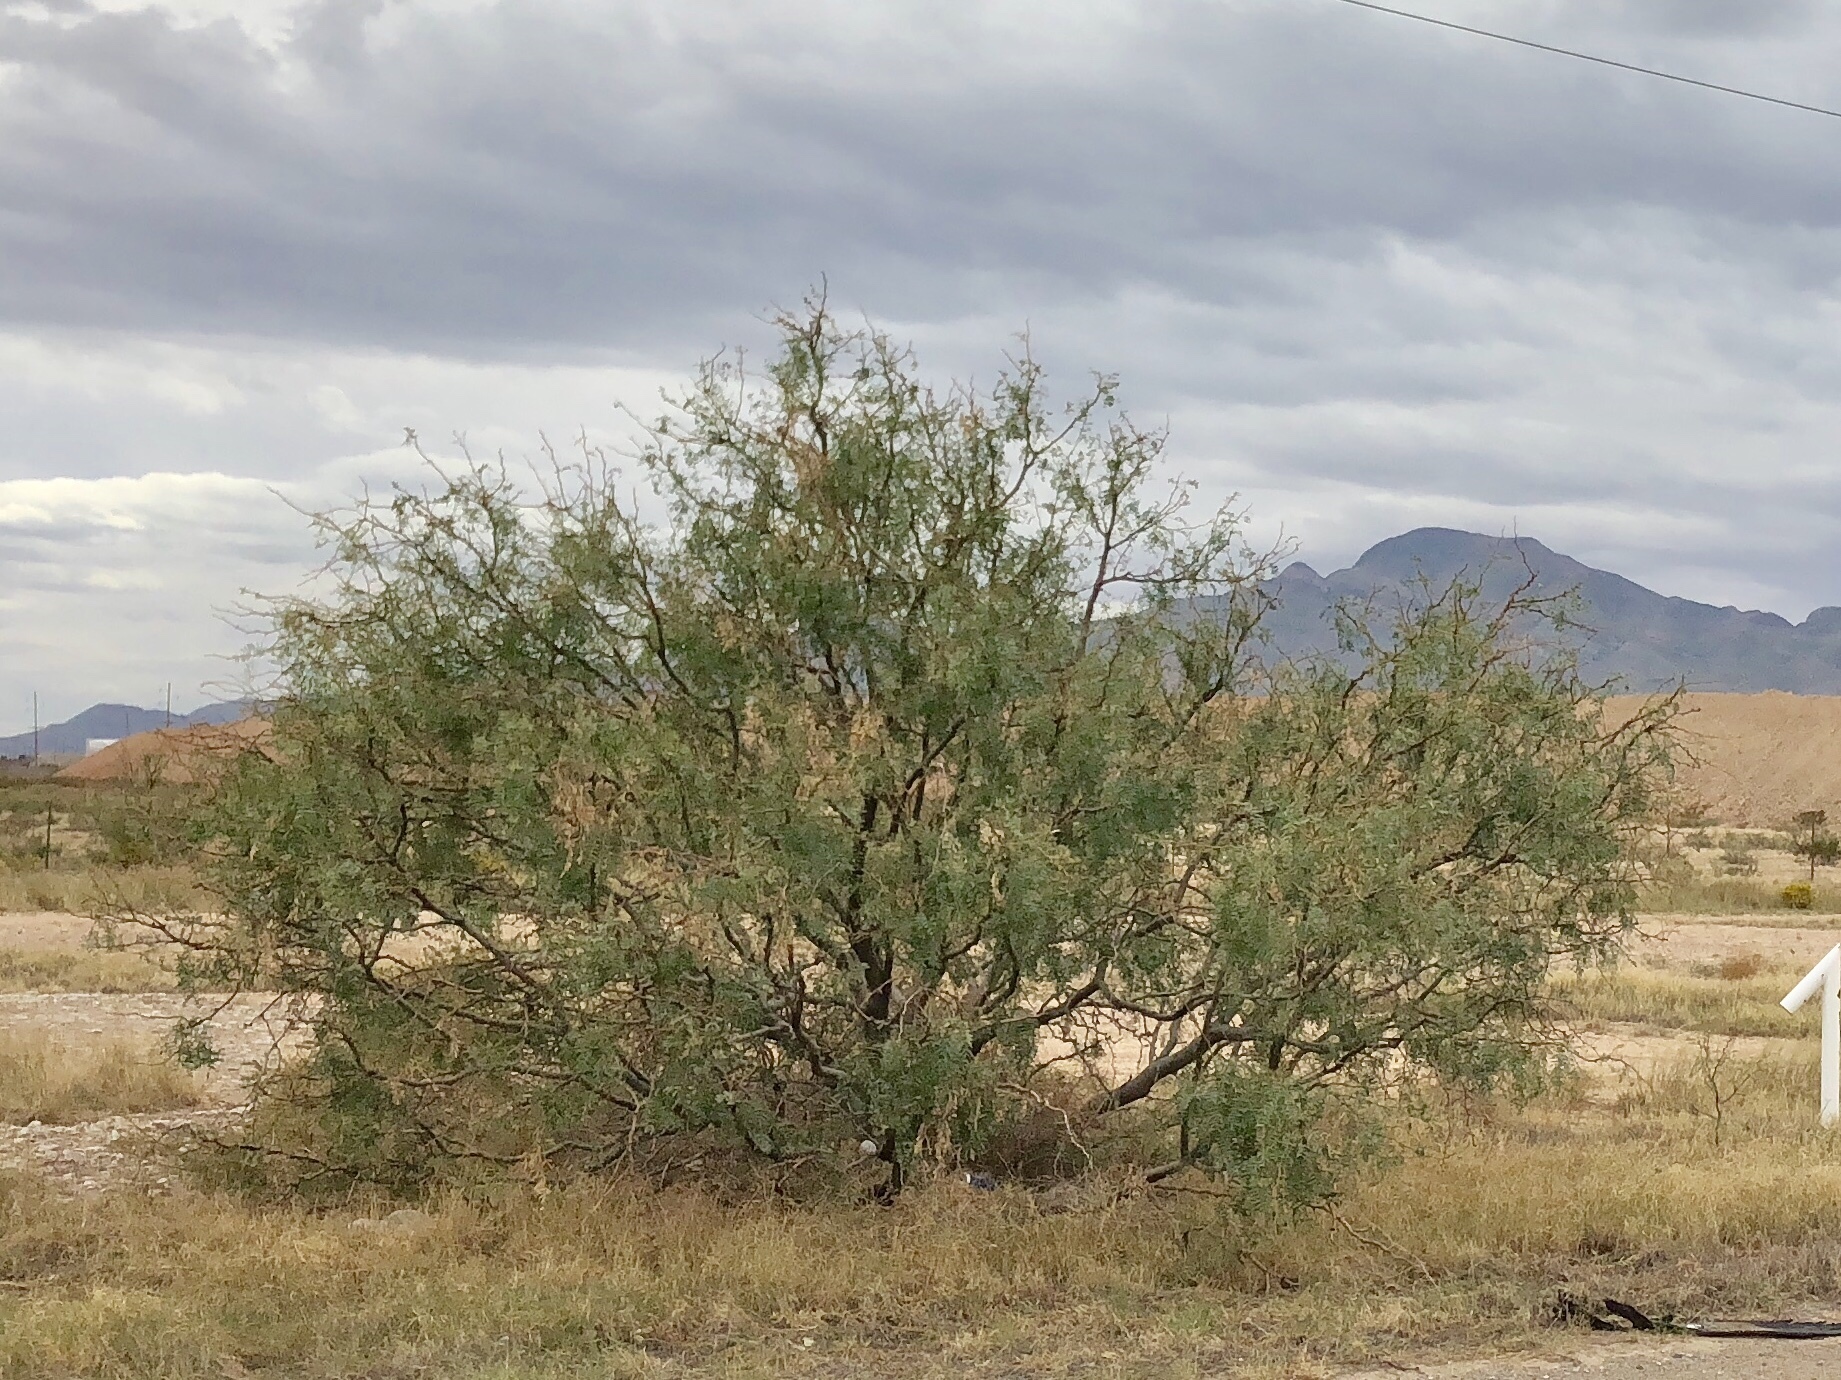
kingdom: Plantae
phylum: Tracheophyta
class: Magnoliopsida
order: Fabales
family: Fabaceae
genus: Prosopis
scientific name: Prosopis glandulosa
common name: Honey mesquite
